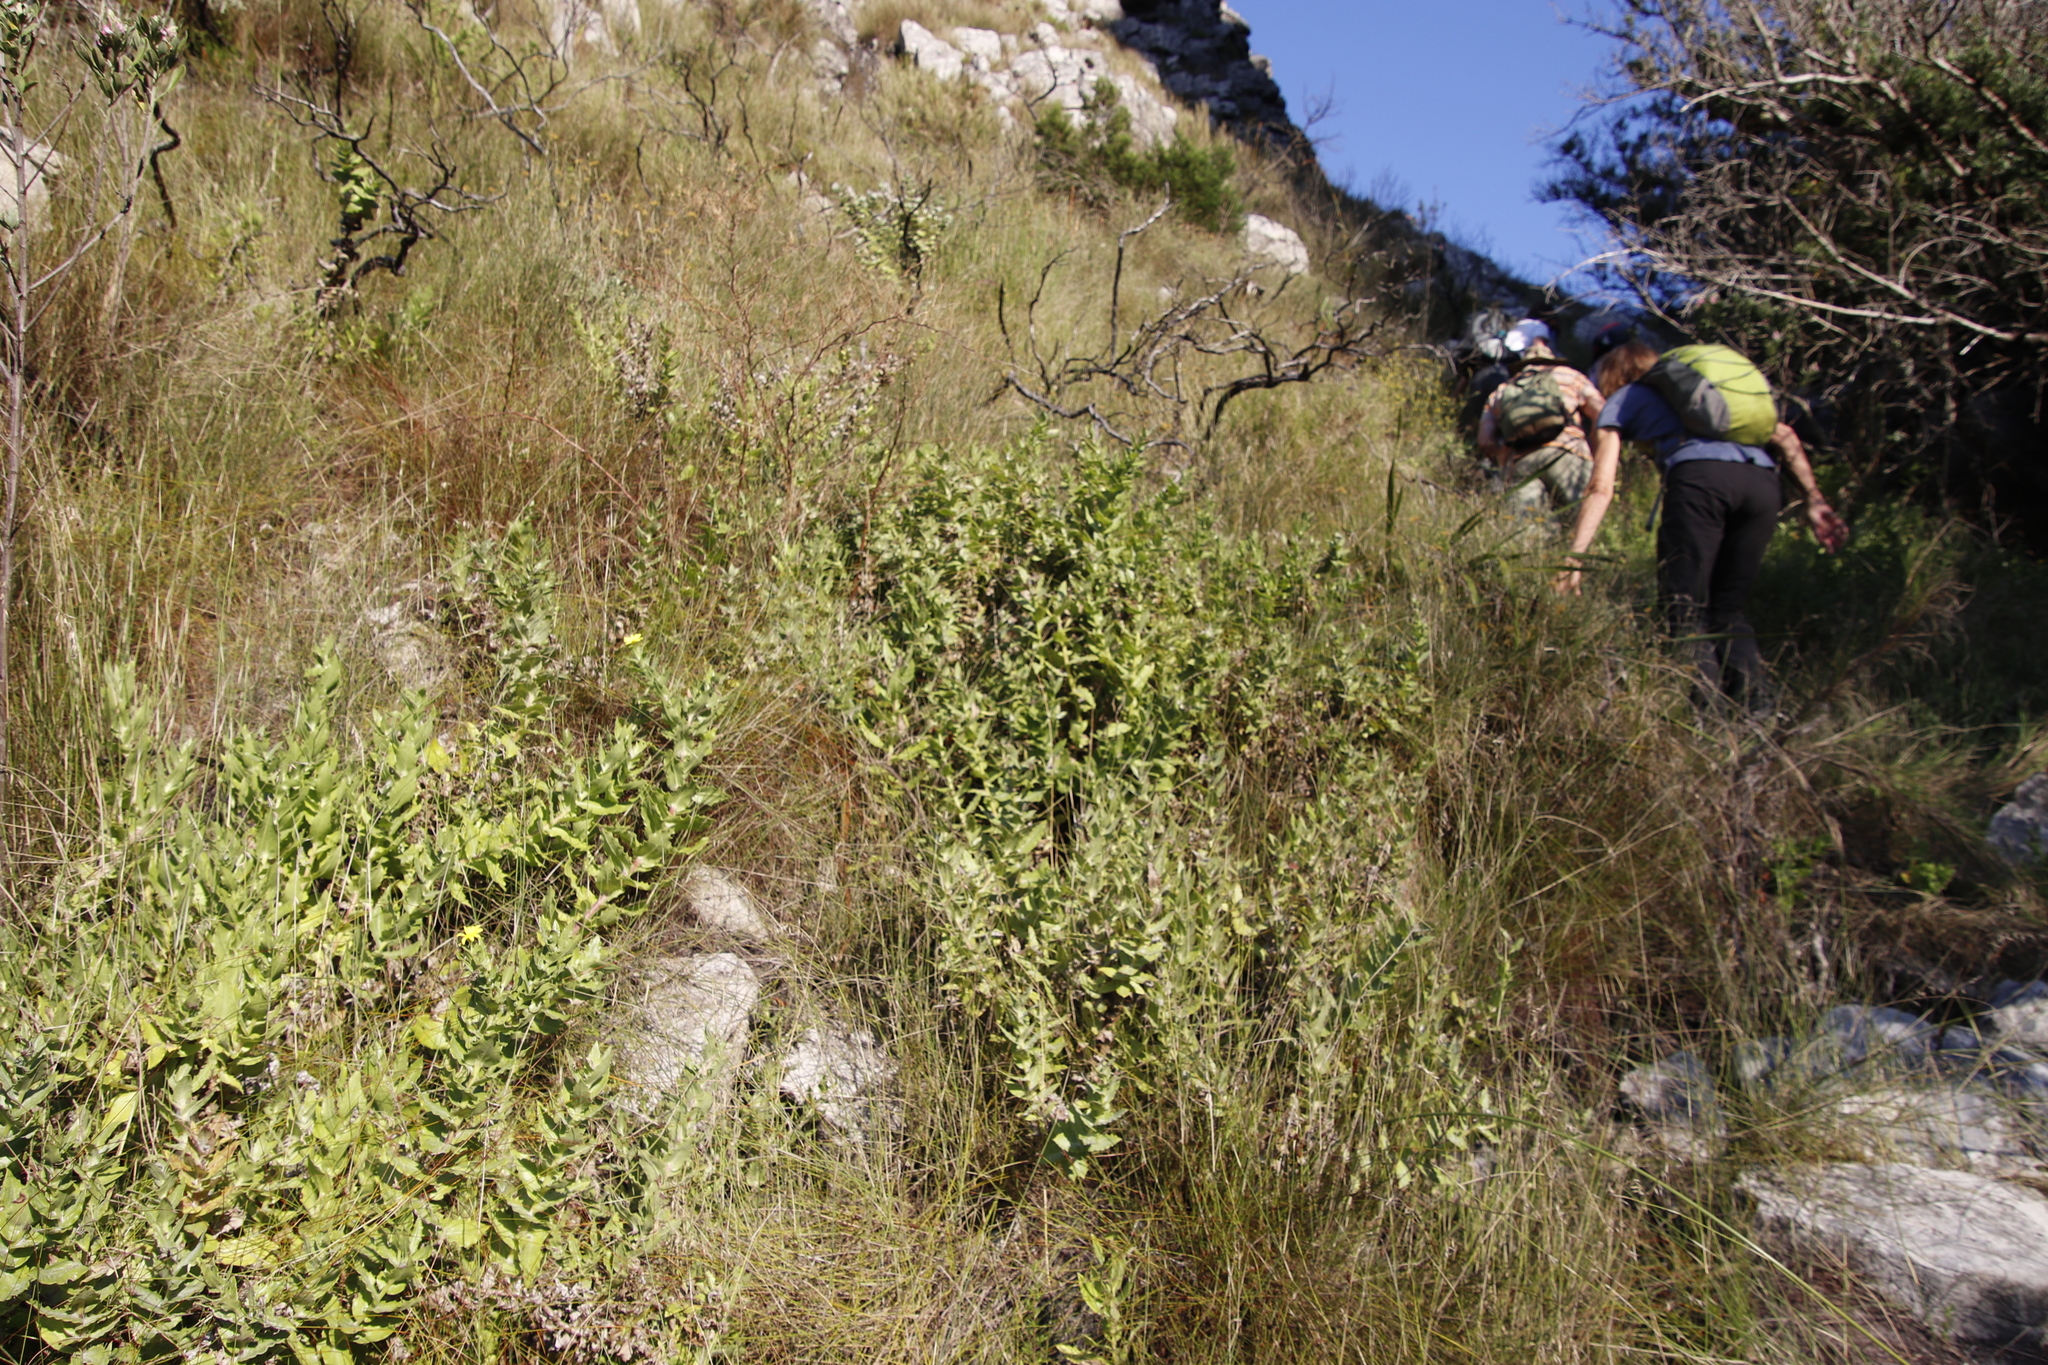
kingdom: Plantae
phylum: Tracheophyta
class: Magnoliopsida
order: Asterales
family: Asteraceae
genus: Osteospermum
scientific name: Osteospermum ilicifolium
